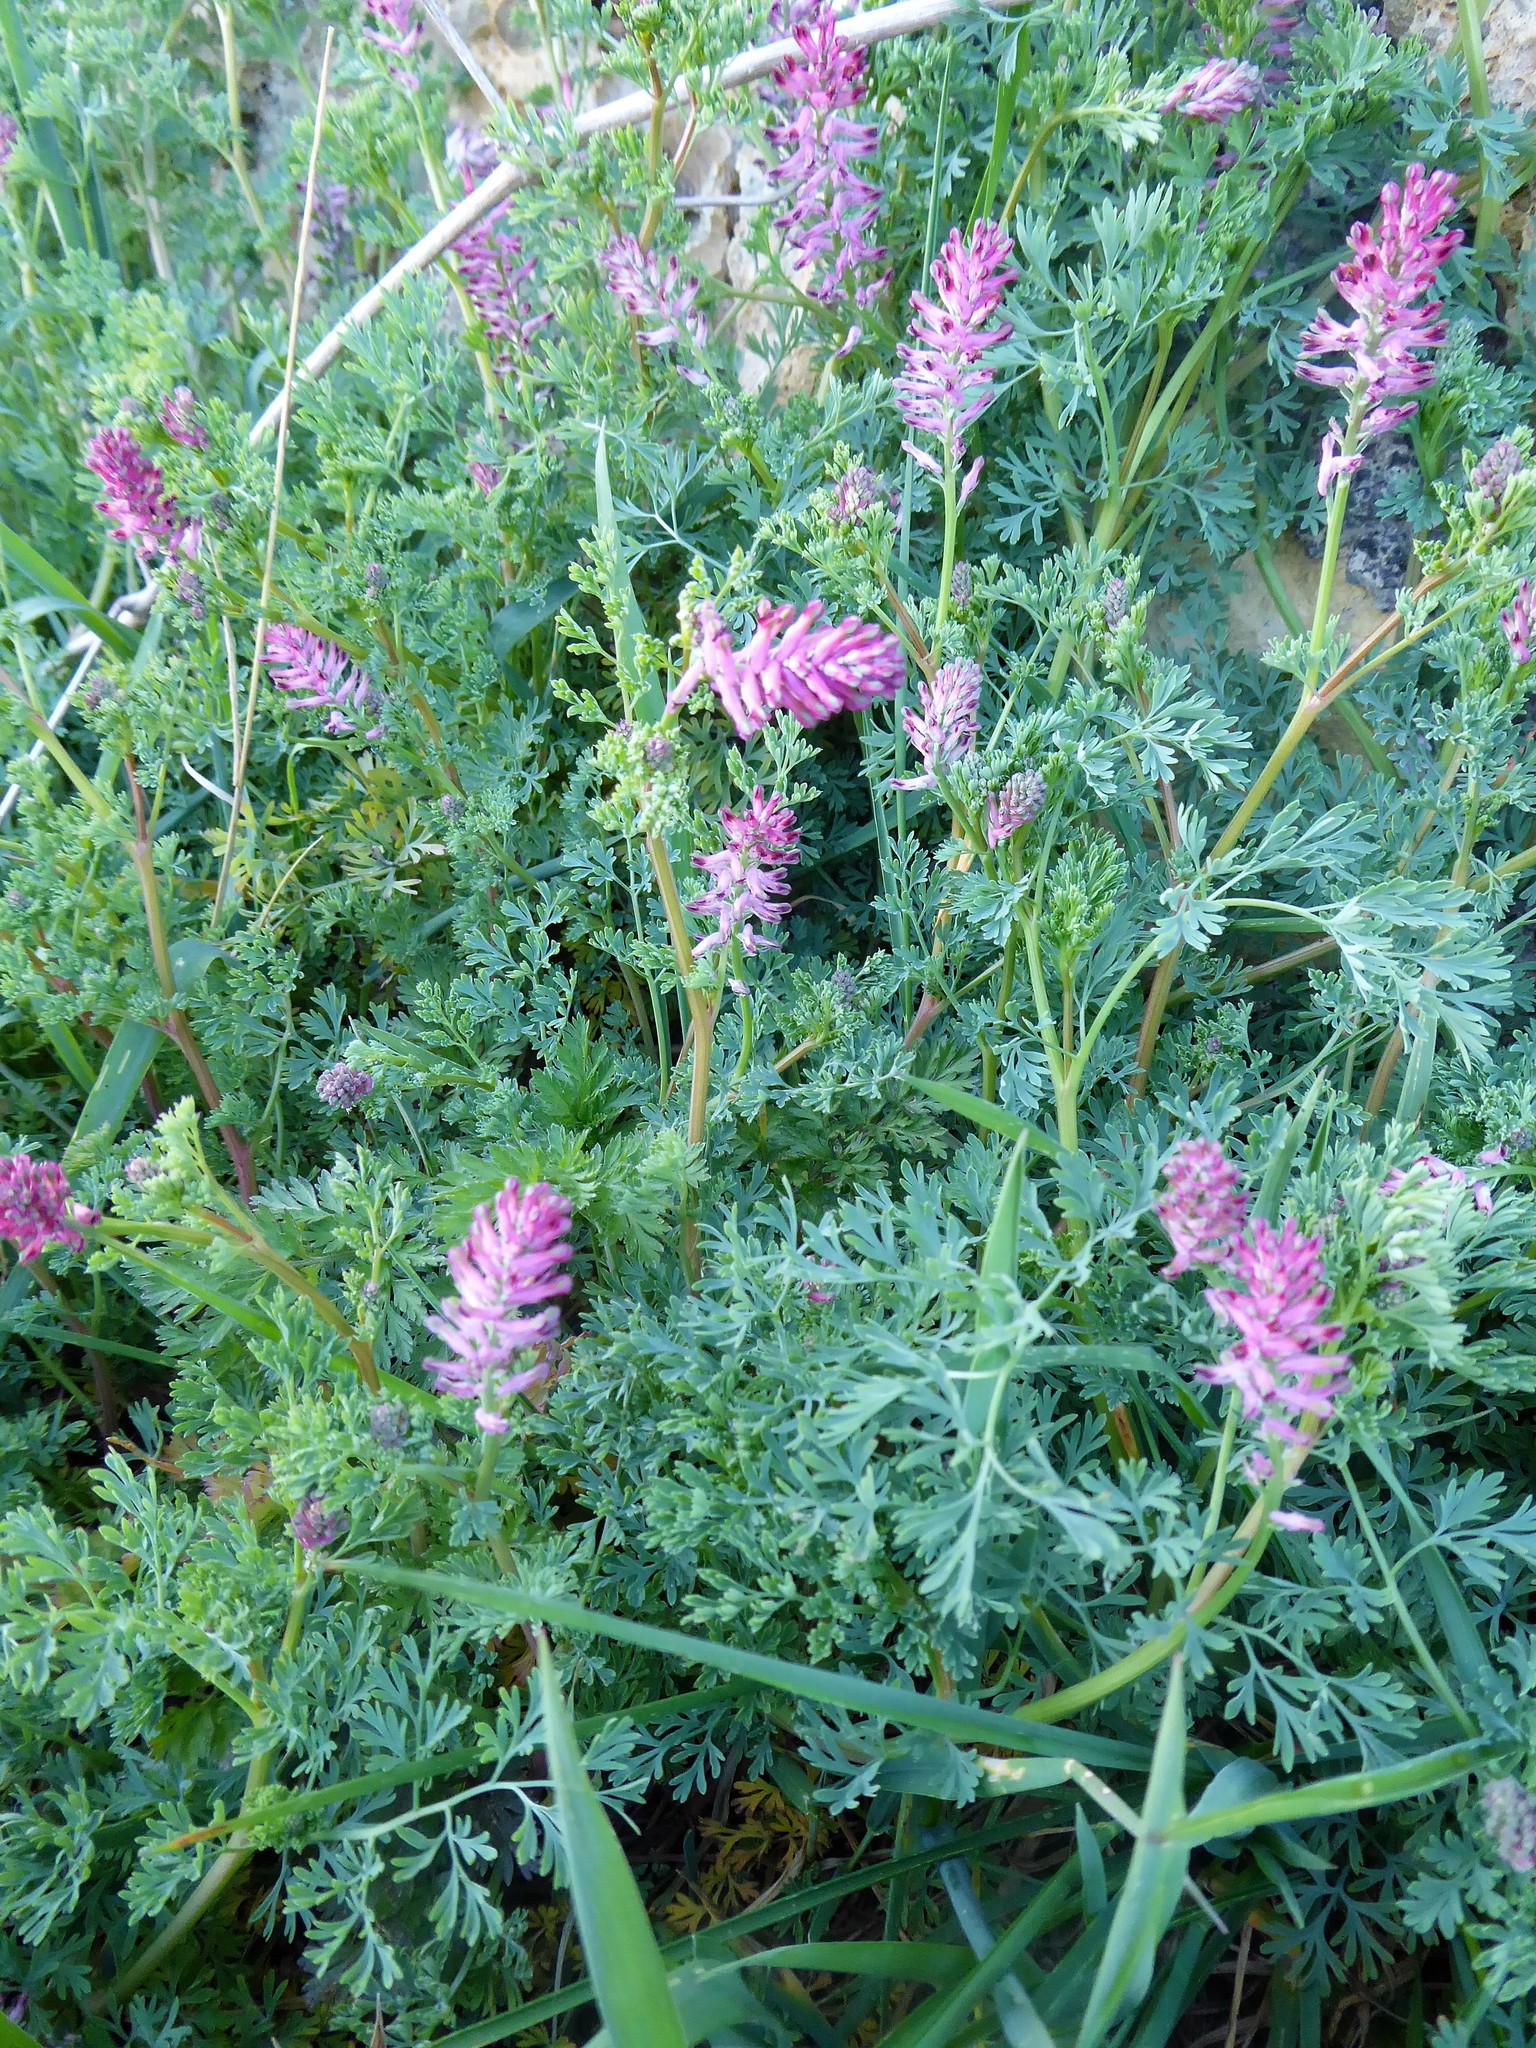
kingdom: Plantae
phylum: Tracheophyta
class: Magnoliopsida
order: Ranunculales
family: Papaveraceae
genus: Fumaria
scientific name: Fumaria officinalis
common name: Common fumitory
